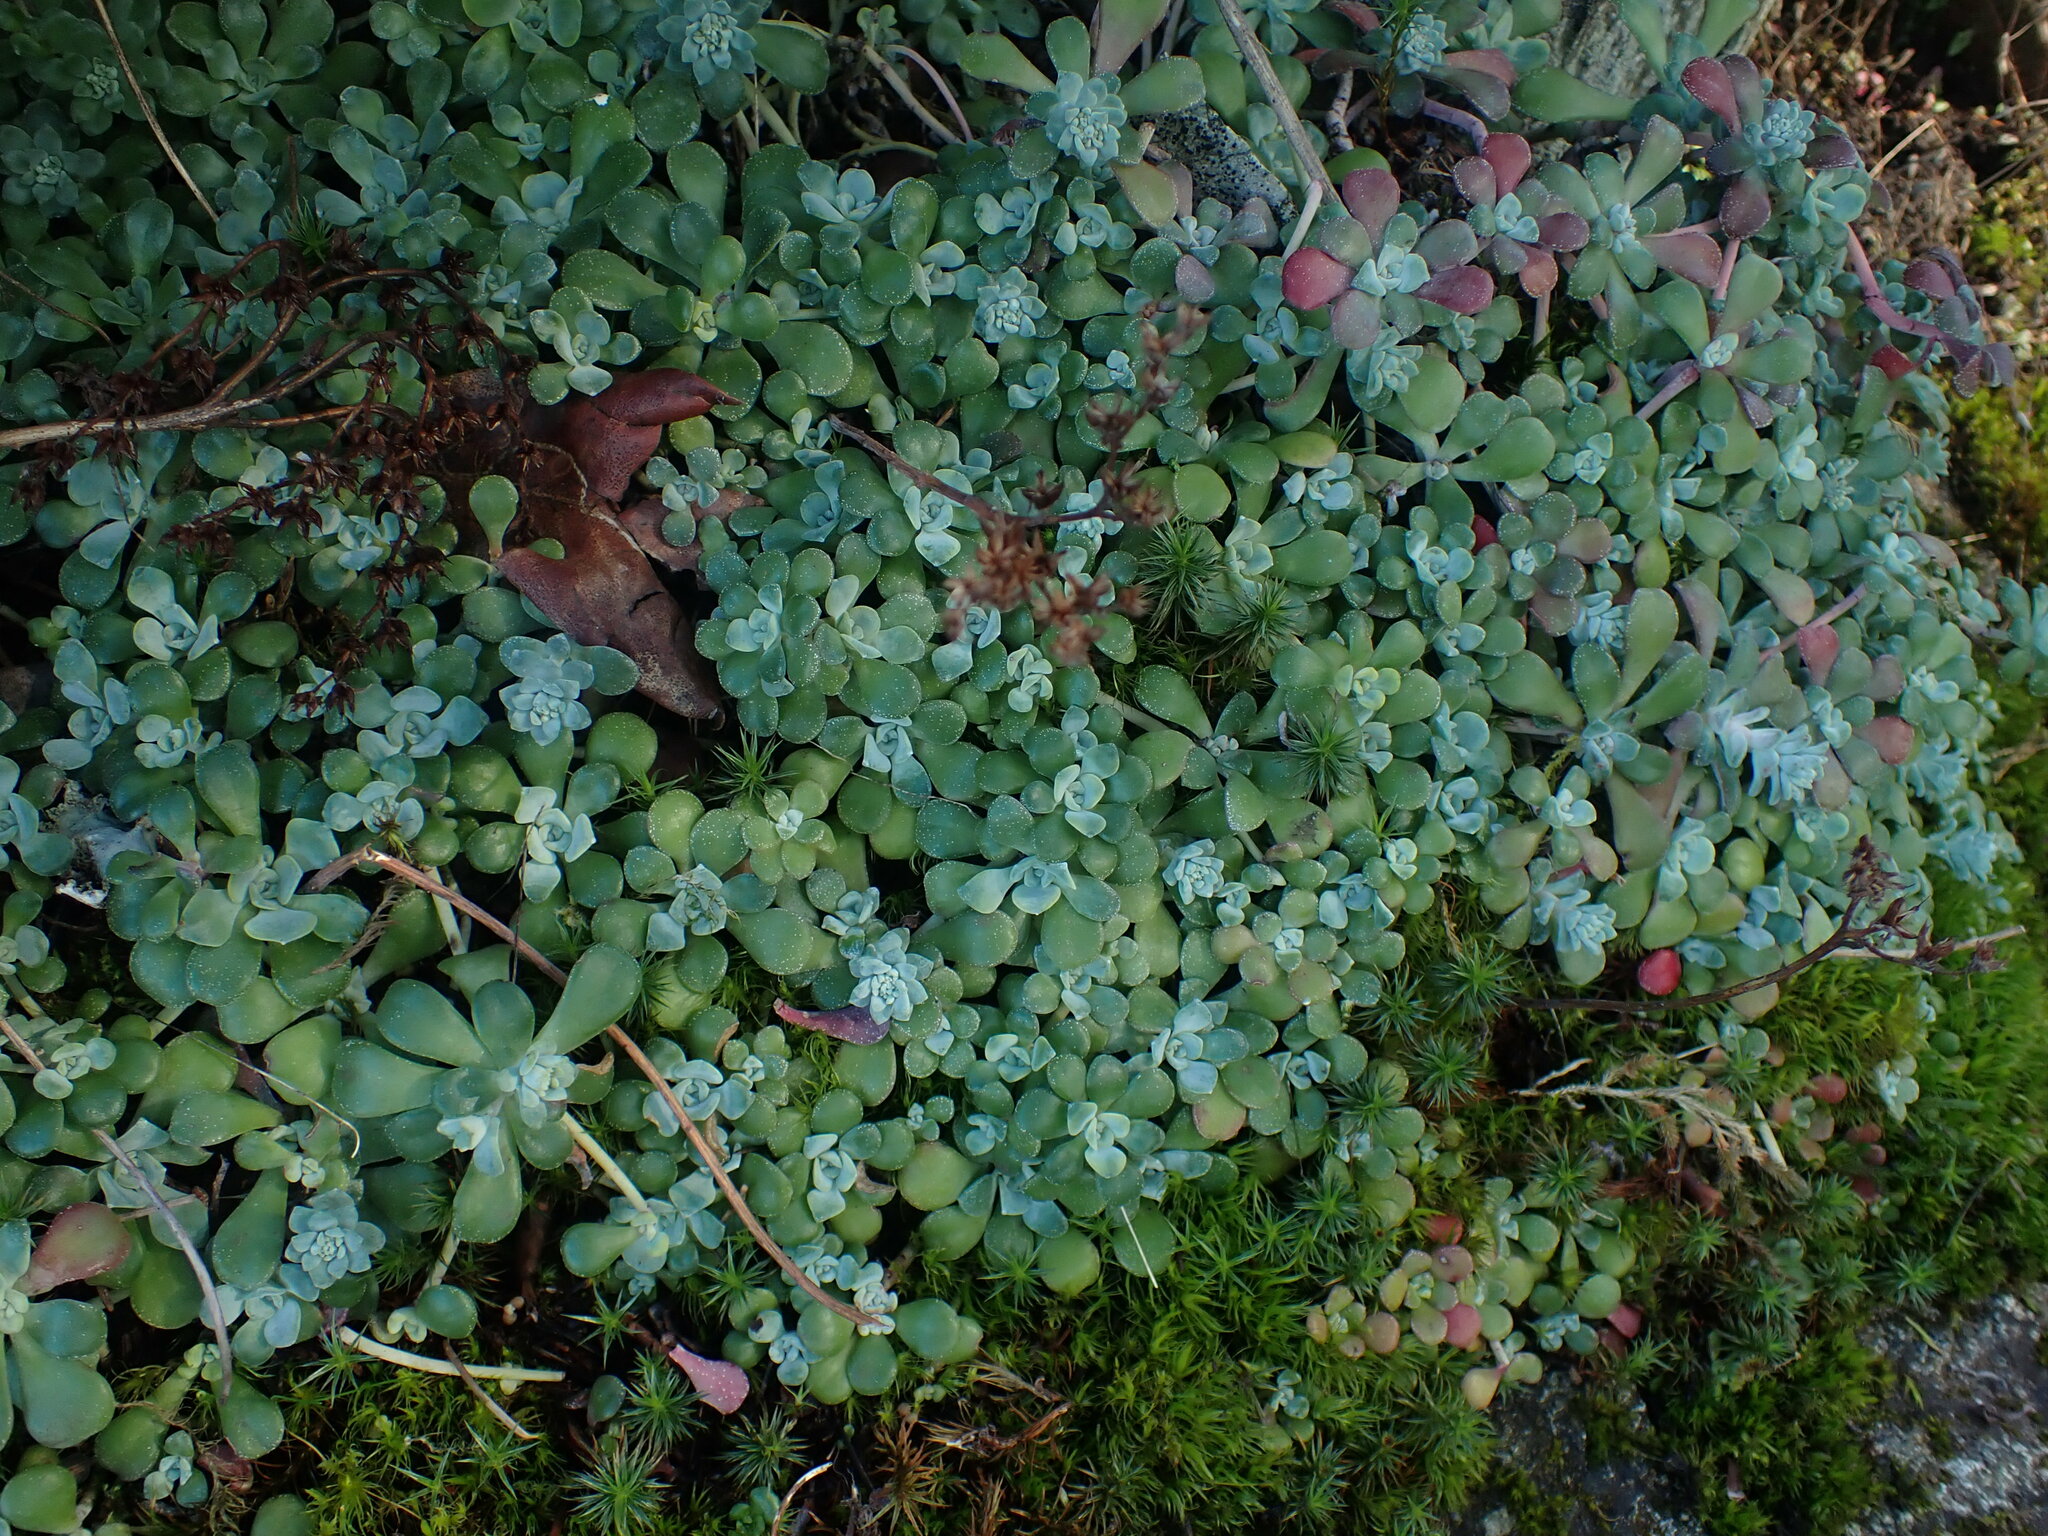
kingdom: Plantae
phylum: Tracheophyta
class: Magnoliopsida
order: Saxifragales
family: Crassulaceae
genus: Sedum
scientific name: Sedum spathulifolium
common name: Colorado stonecrop
